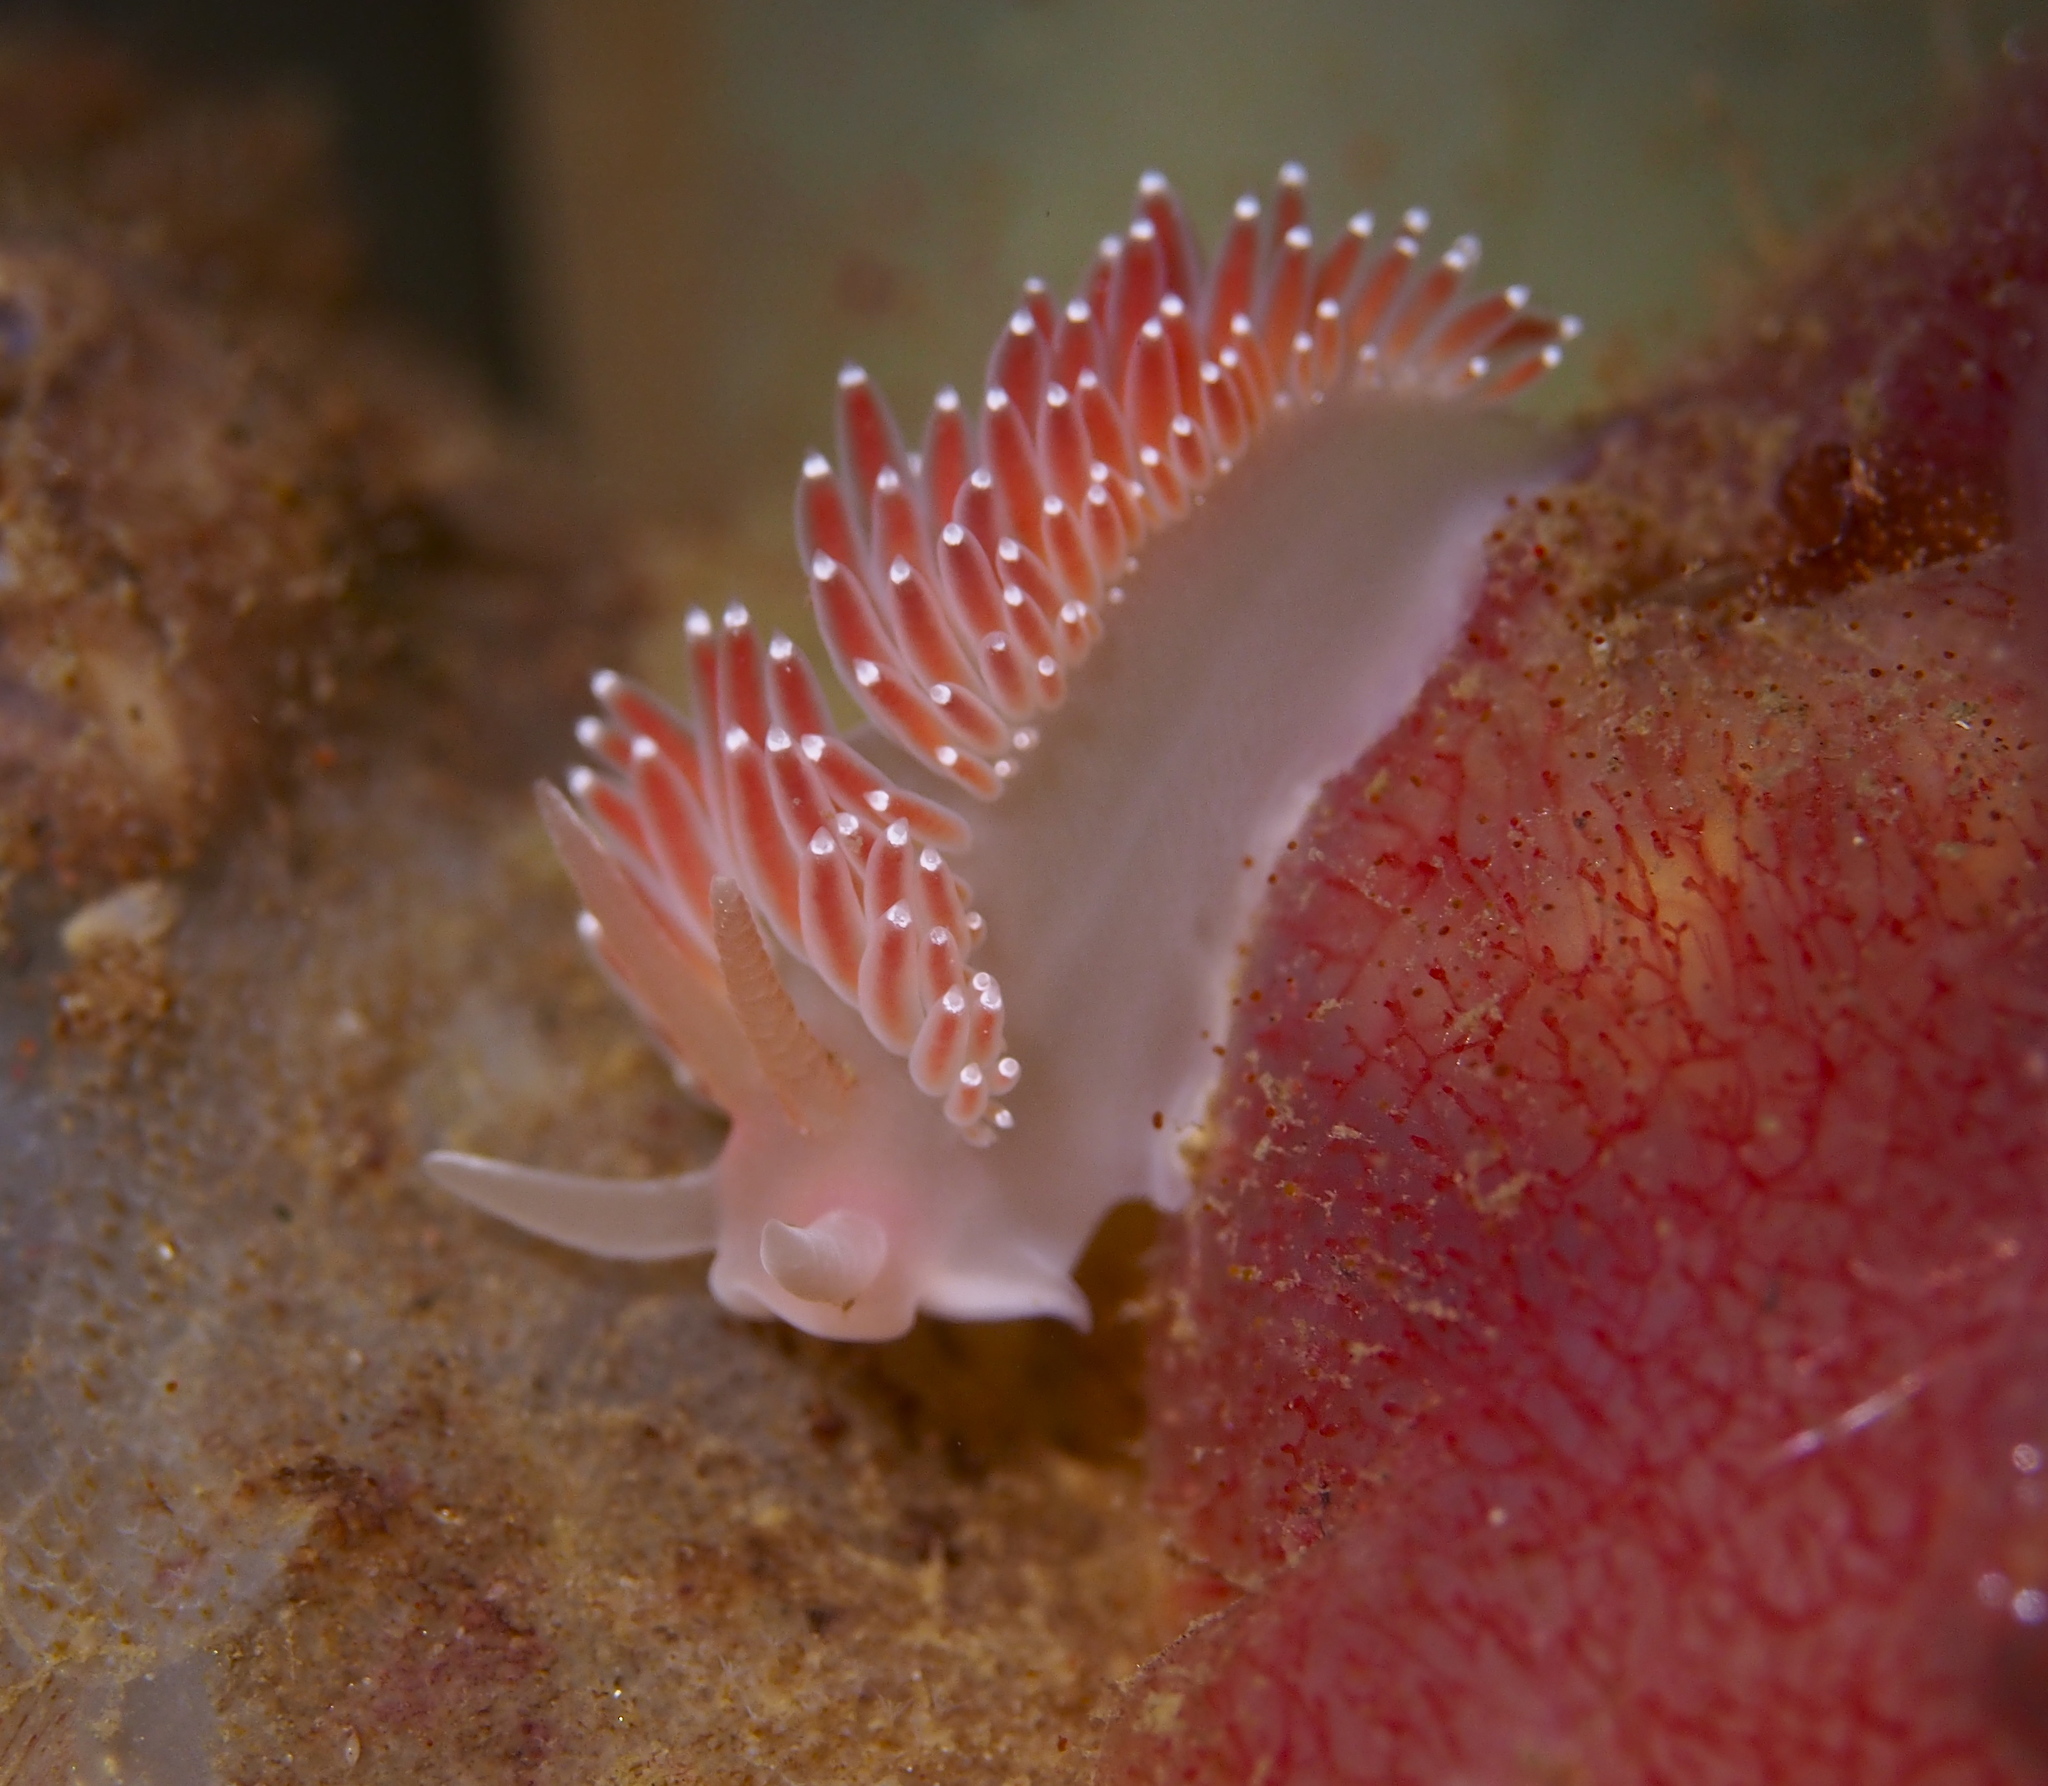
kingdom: Animalia
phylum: Mollusca
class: Gastropoda
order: Nudibranchia
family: Coryphellidae
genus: Coryphella
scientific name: Coryphella verrucosa
